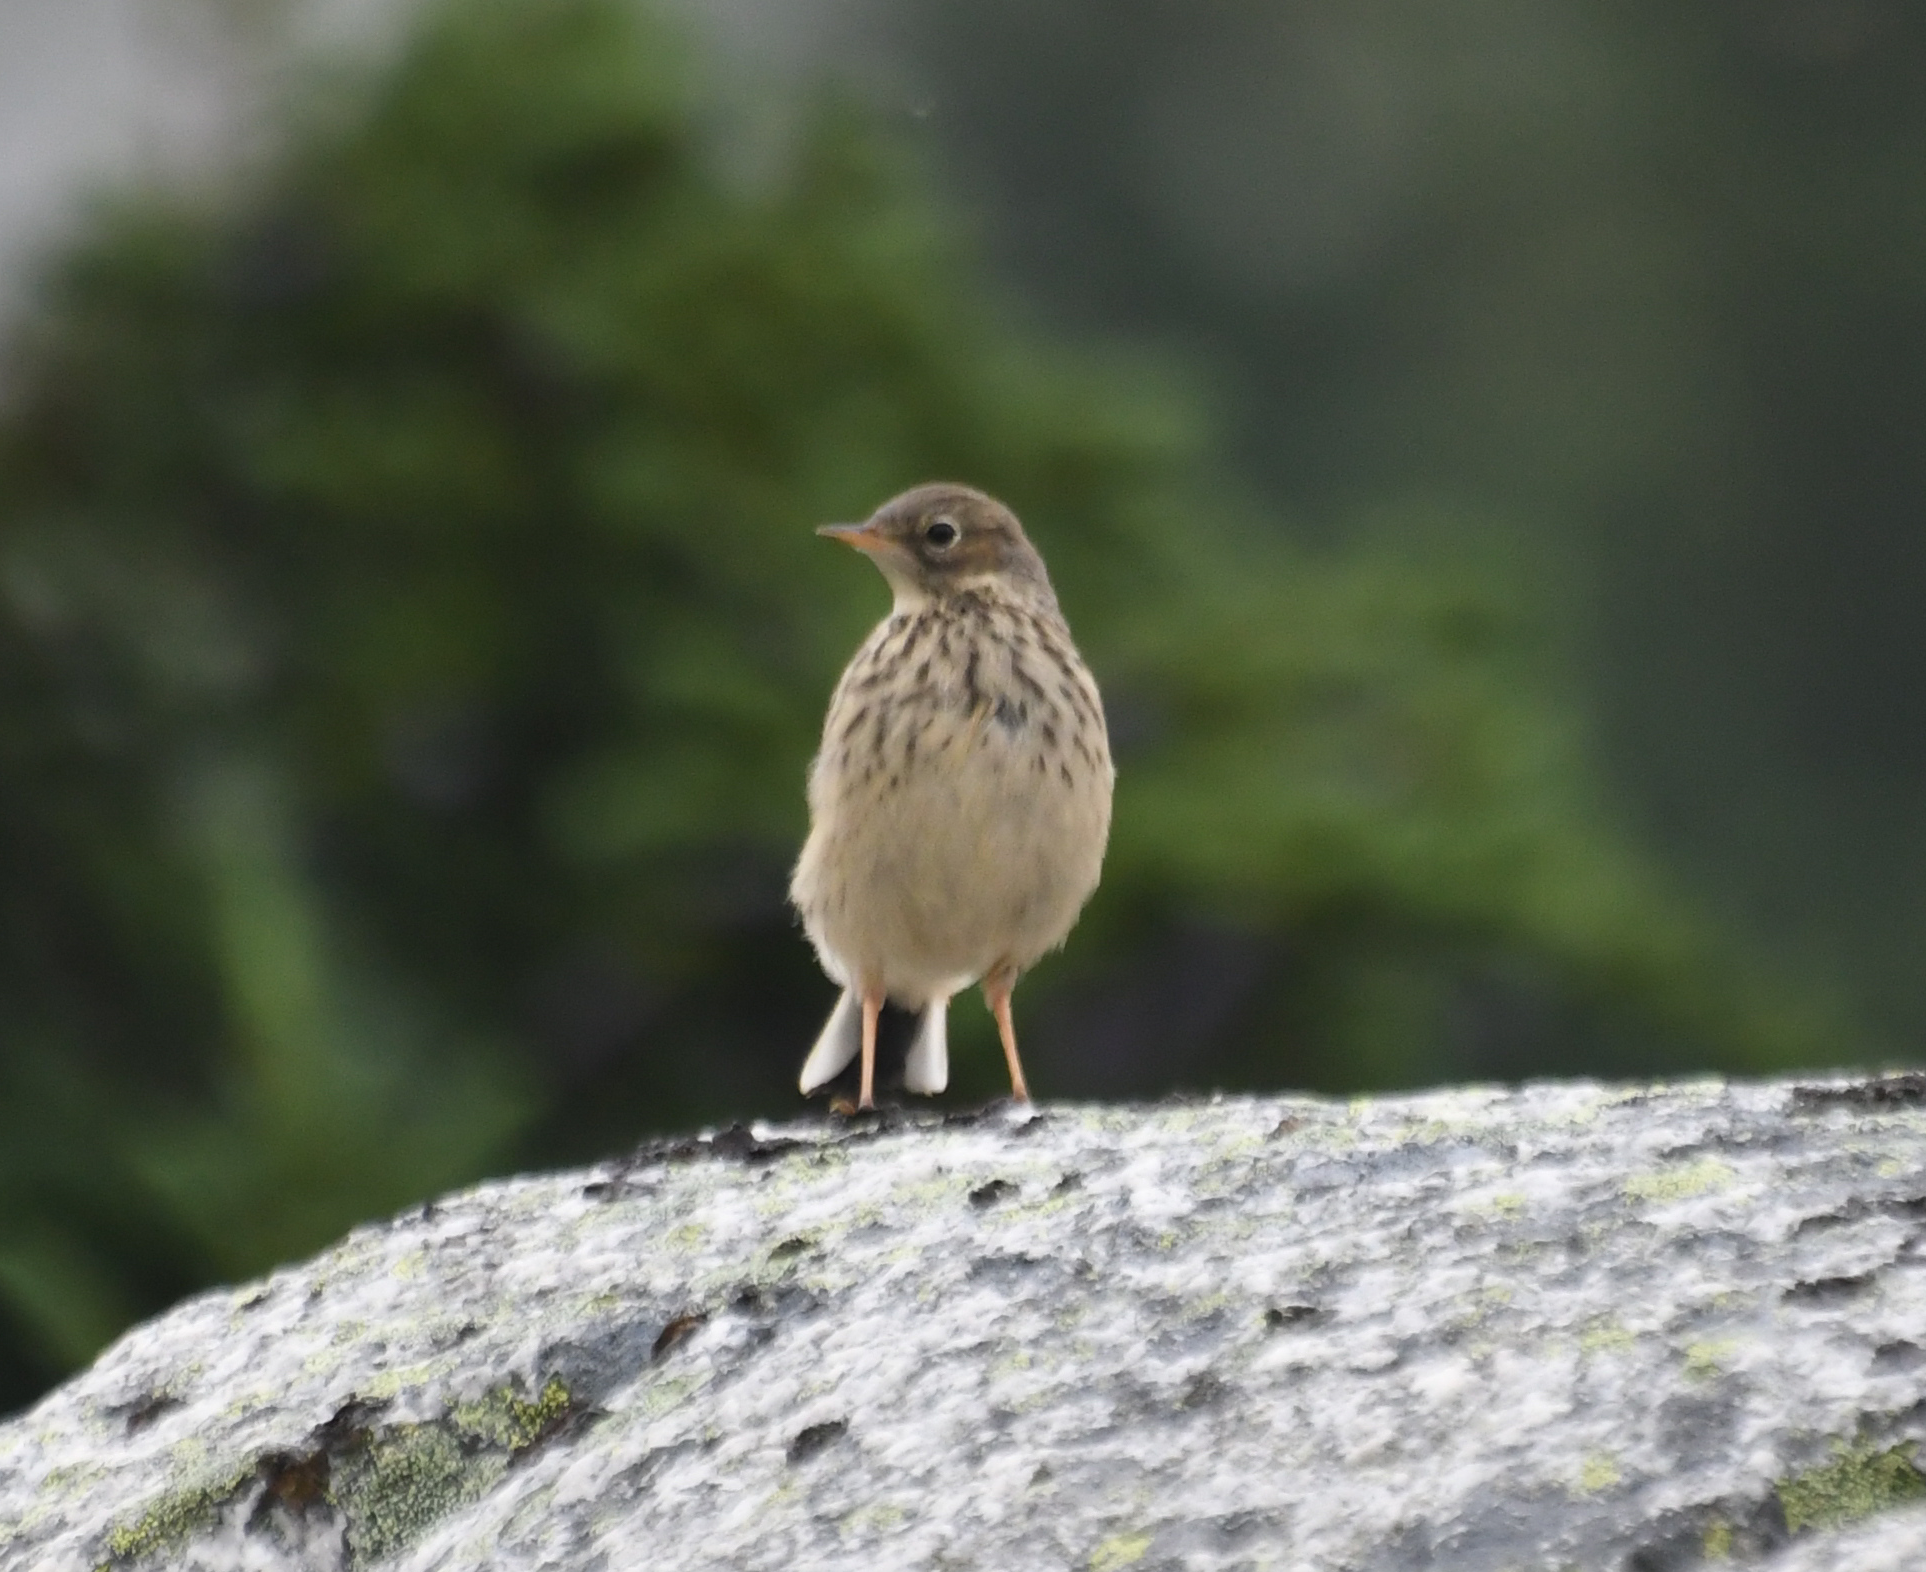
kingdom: Animalia
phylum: Chordata
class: Aves
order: Passeriformes
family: Motacillidae
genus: Anthus
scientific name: Anthus rubescens
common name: Buff-bellied pipit
